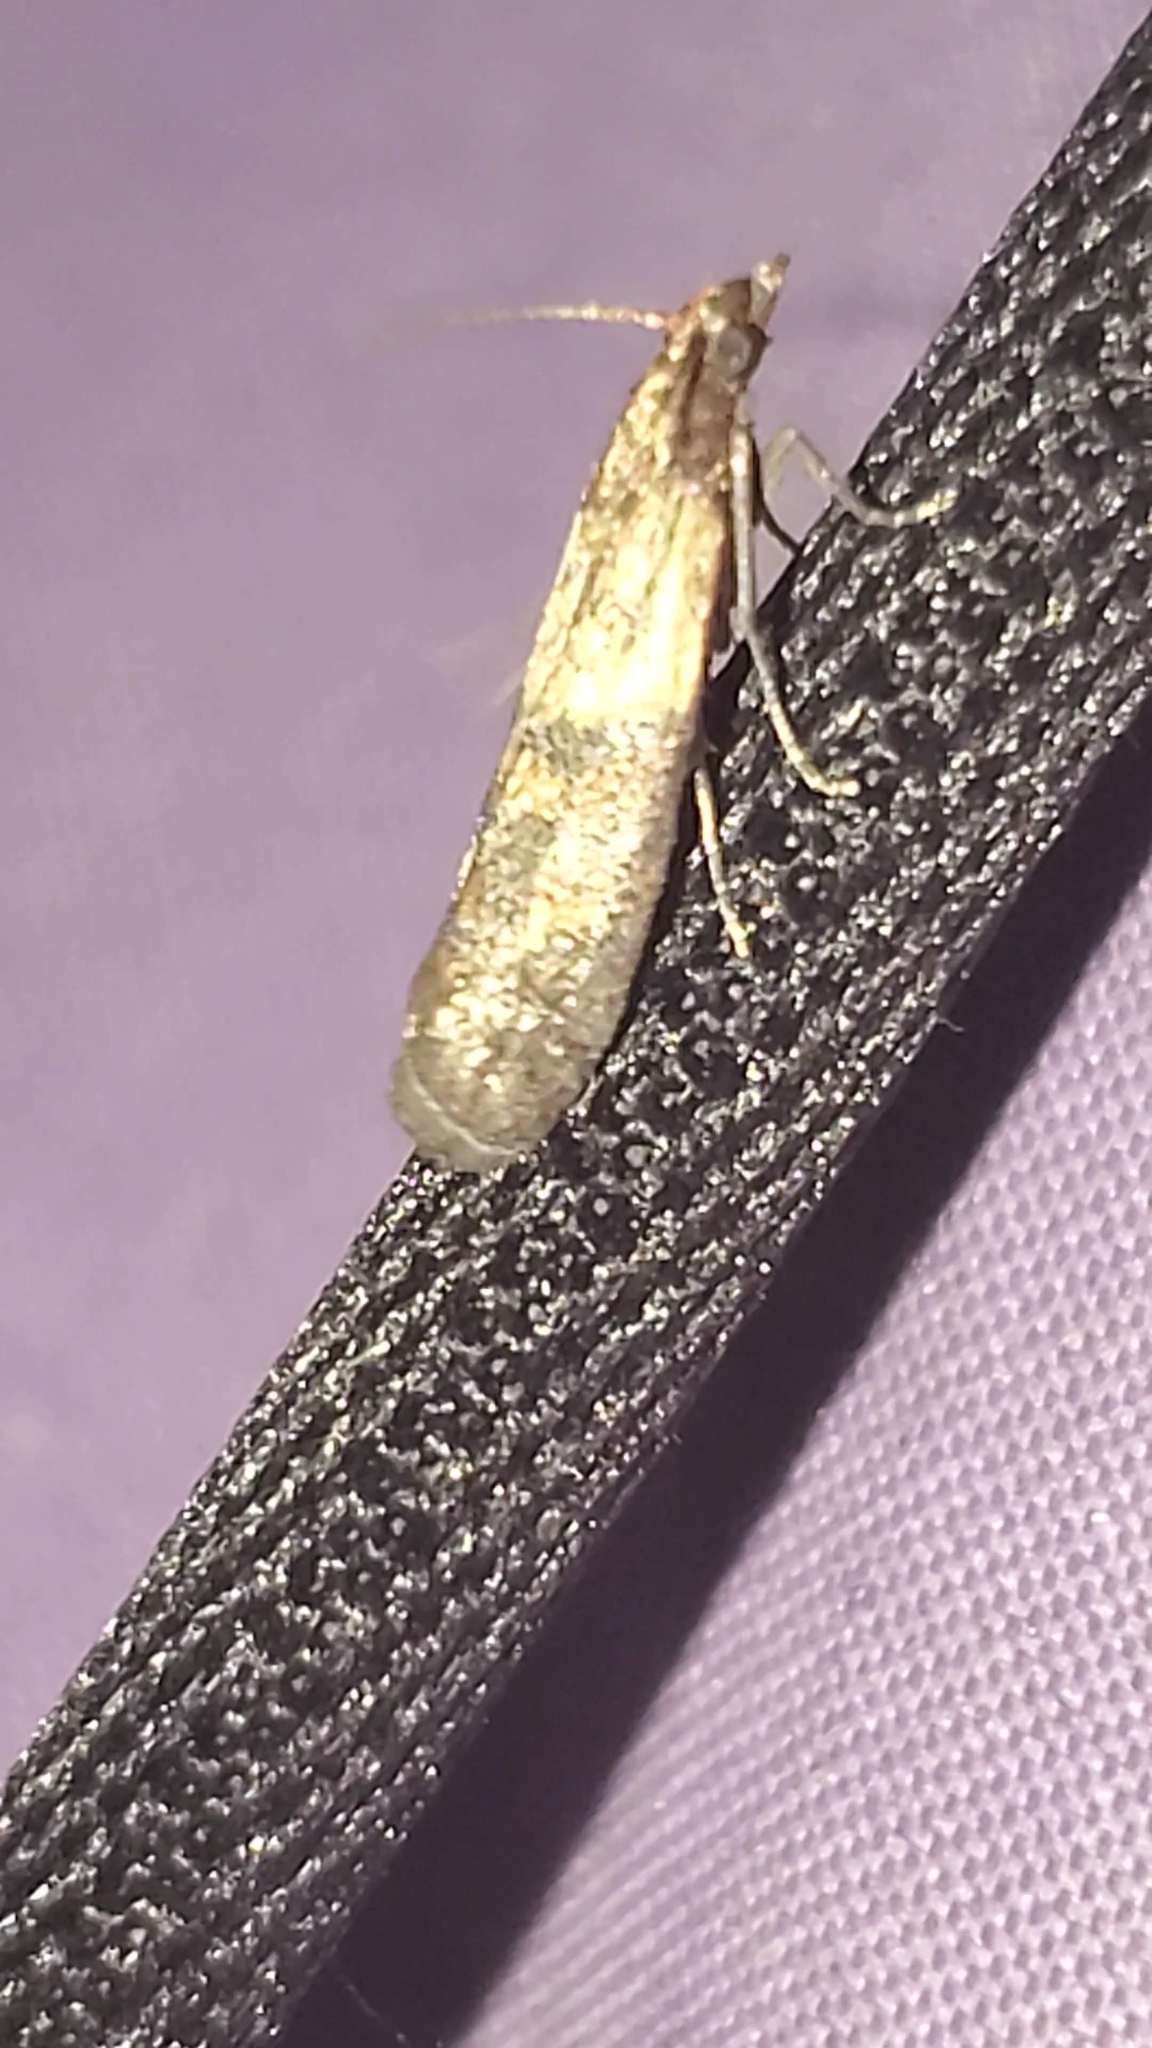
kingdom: Animalia
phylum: Arthropoda
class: Insecta
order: Lepidoptera
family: Pyralidae
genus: Plodia
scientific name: Plodia interpunctella
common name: Indian meal moth
